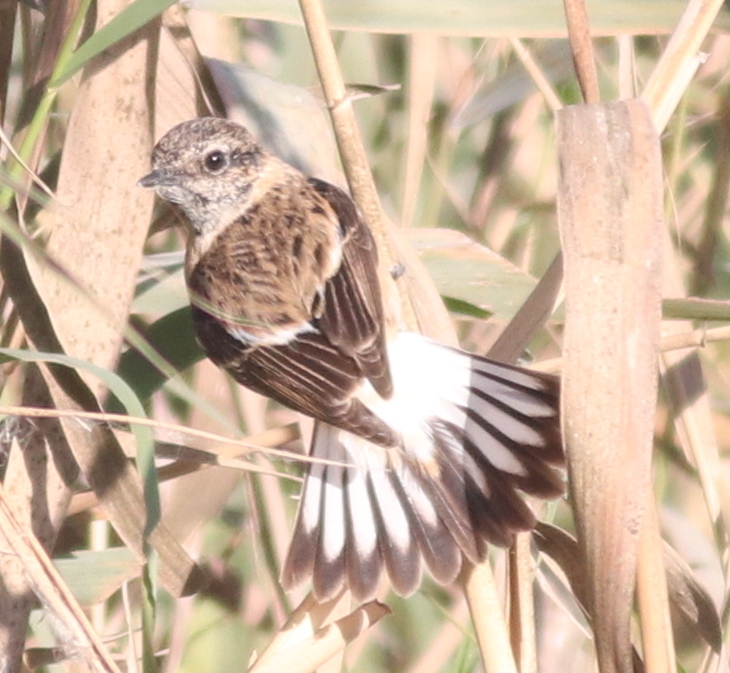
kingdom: Animalia
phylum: Chordata
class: Aves
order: Passeriformes
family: Muscicapidae
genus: Saxicola
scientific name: Saxicola maurus
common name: Siberian stonechat
